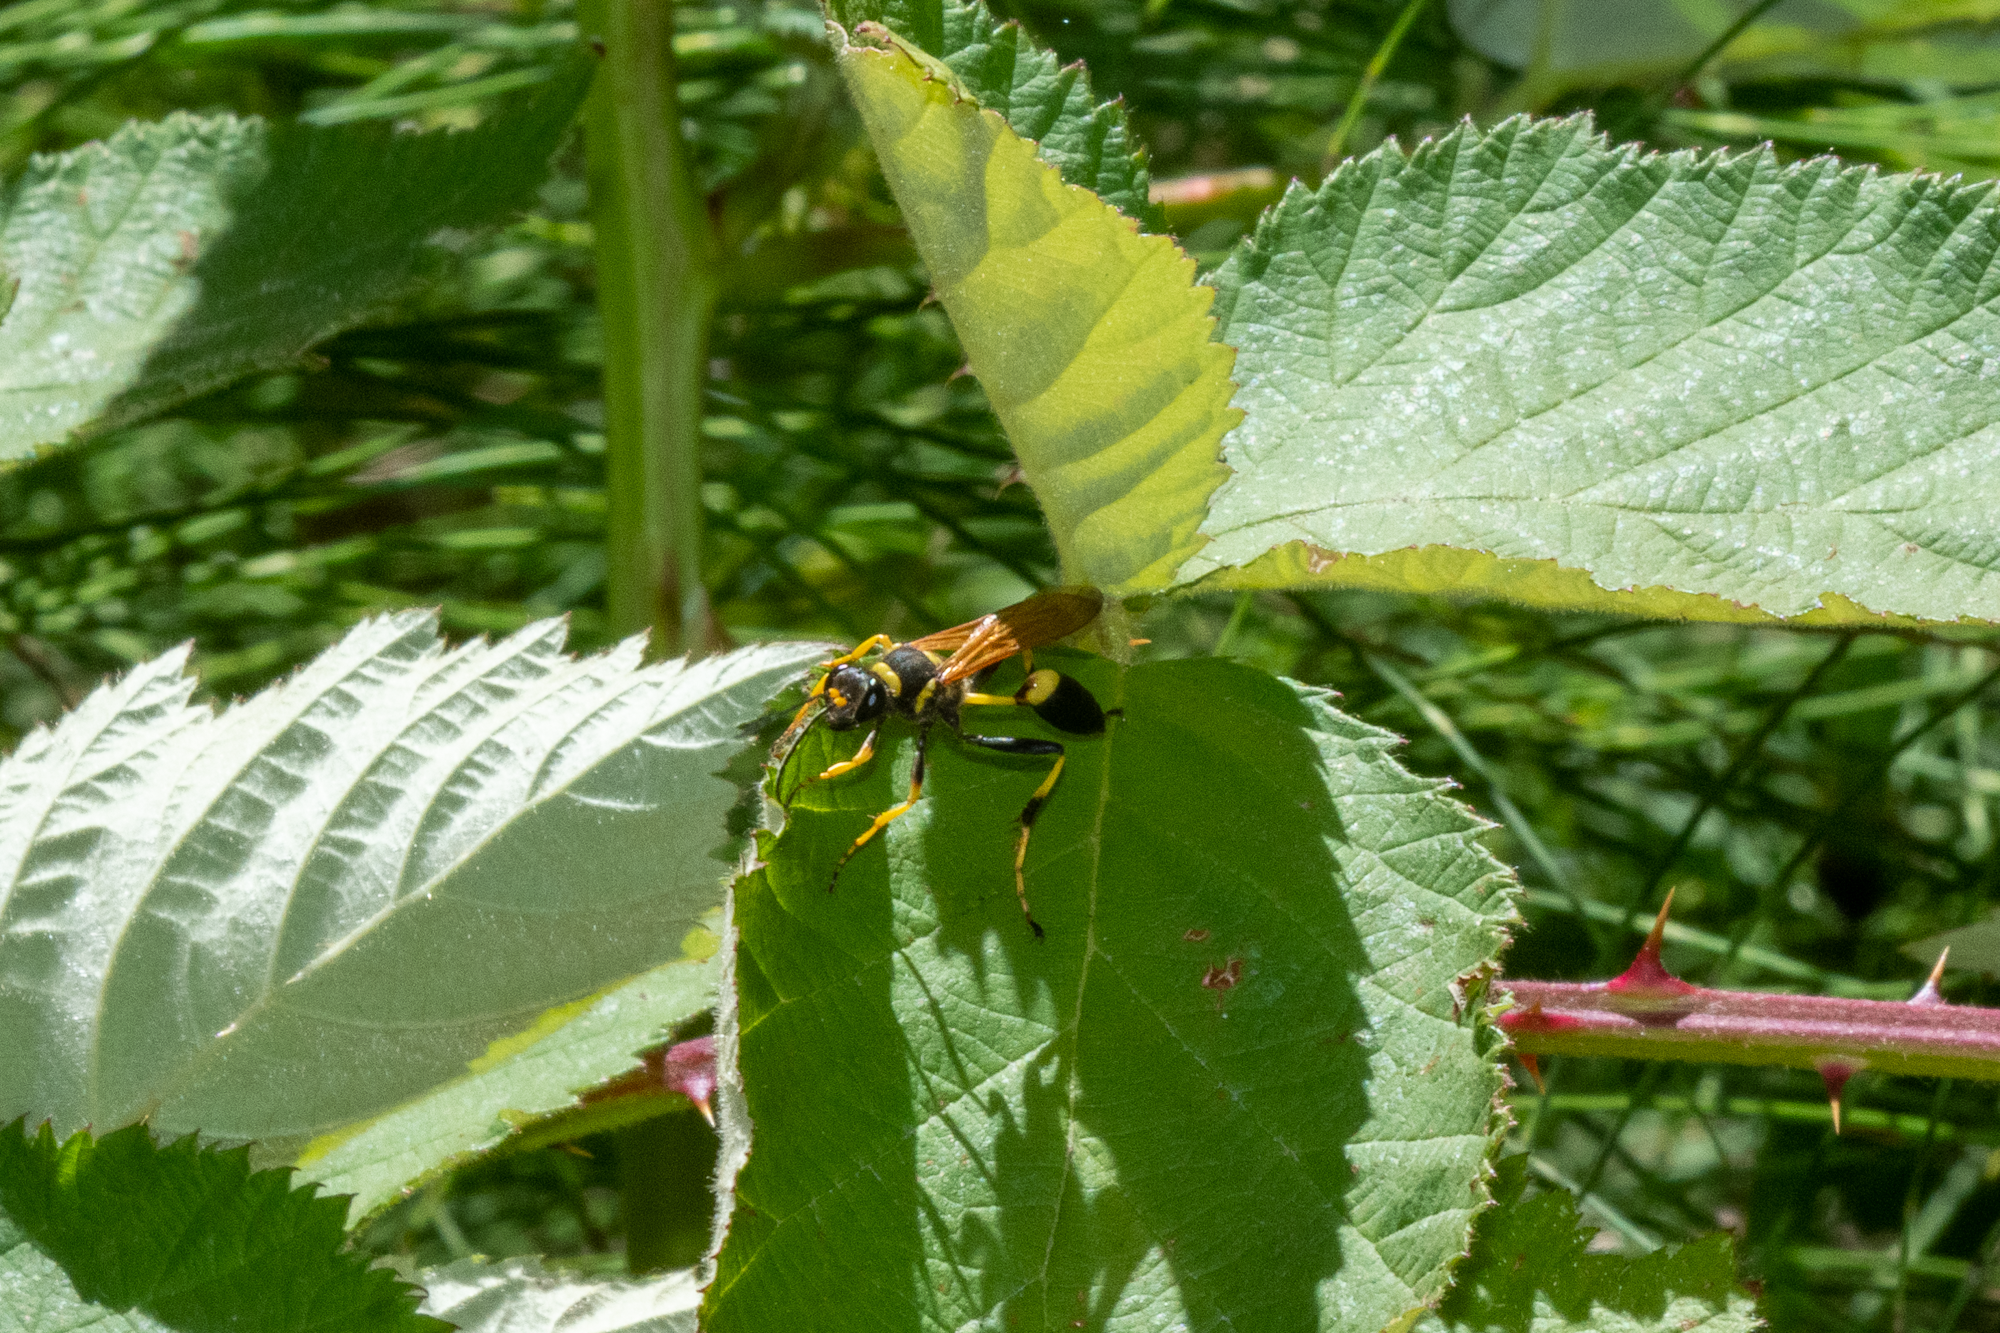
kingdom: Animalia
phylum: Arthropoda
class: Insecta
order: Hymenoptera
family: Sphecidae
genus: Sceliphron
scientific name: Sceliphron caementarium
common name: Mud dauber
